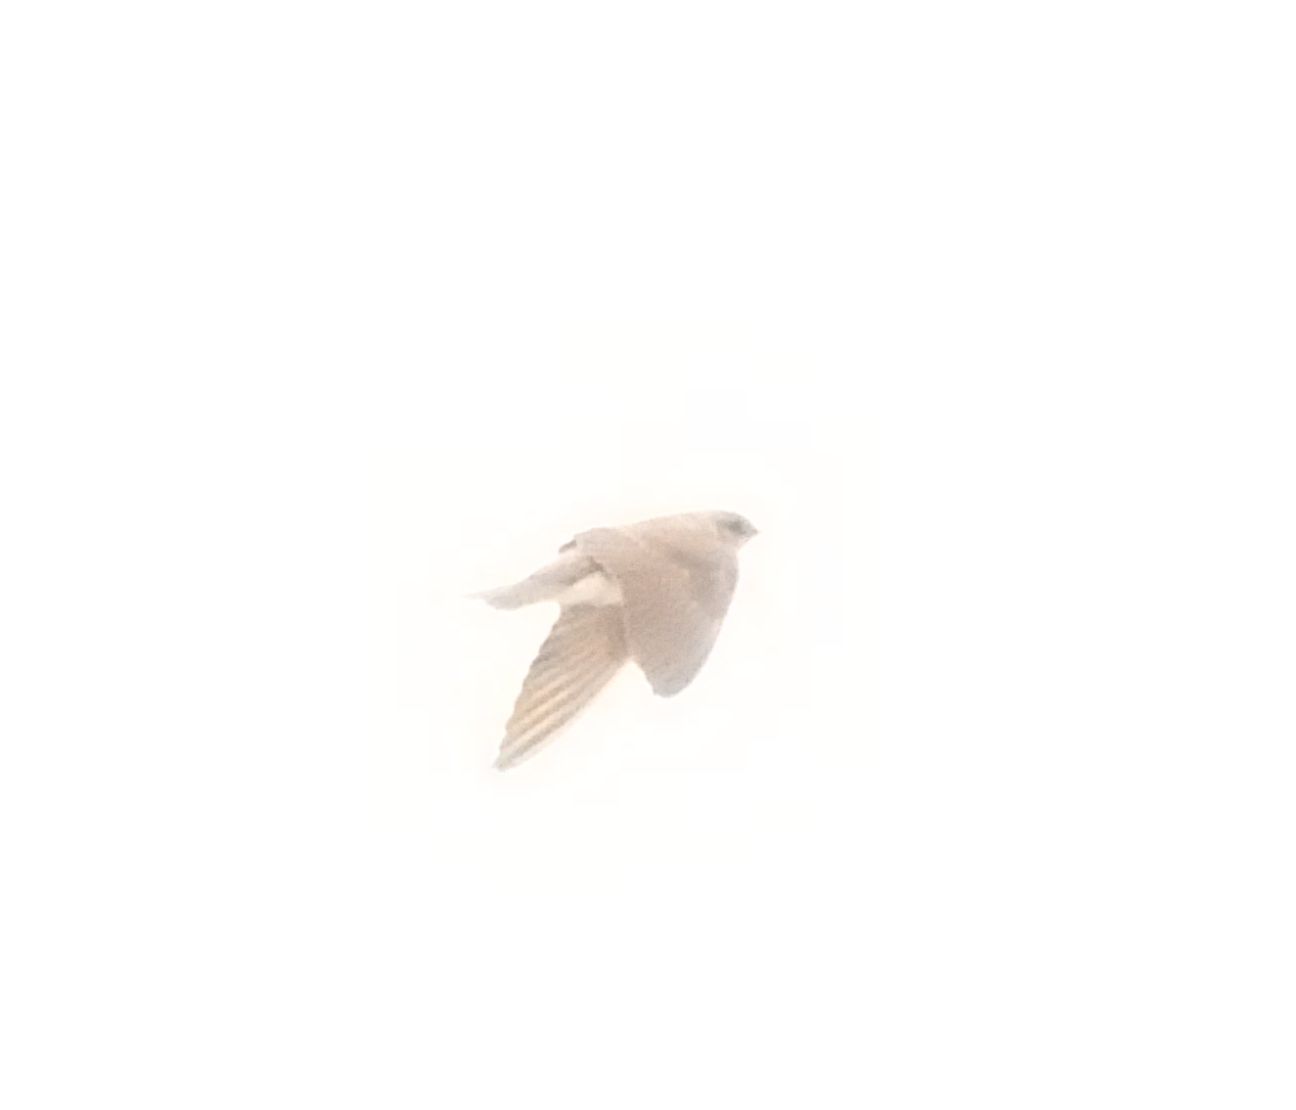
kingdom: Animalia
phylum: Chordata
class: Aves
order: Passeriformes
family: Hirundinidae
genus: Stelgidopteryx
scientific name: Stelgidopteryx serripennis
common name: Northern rough-winged swallow
